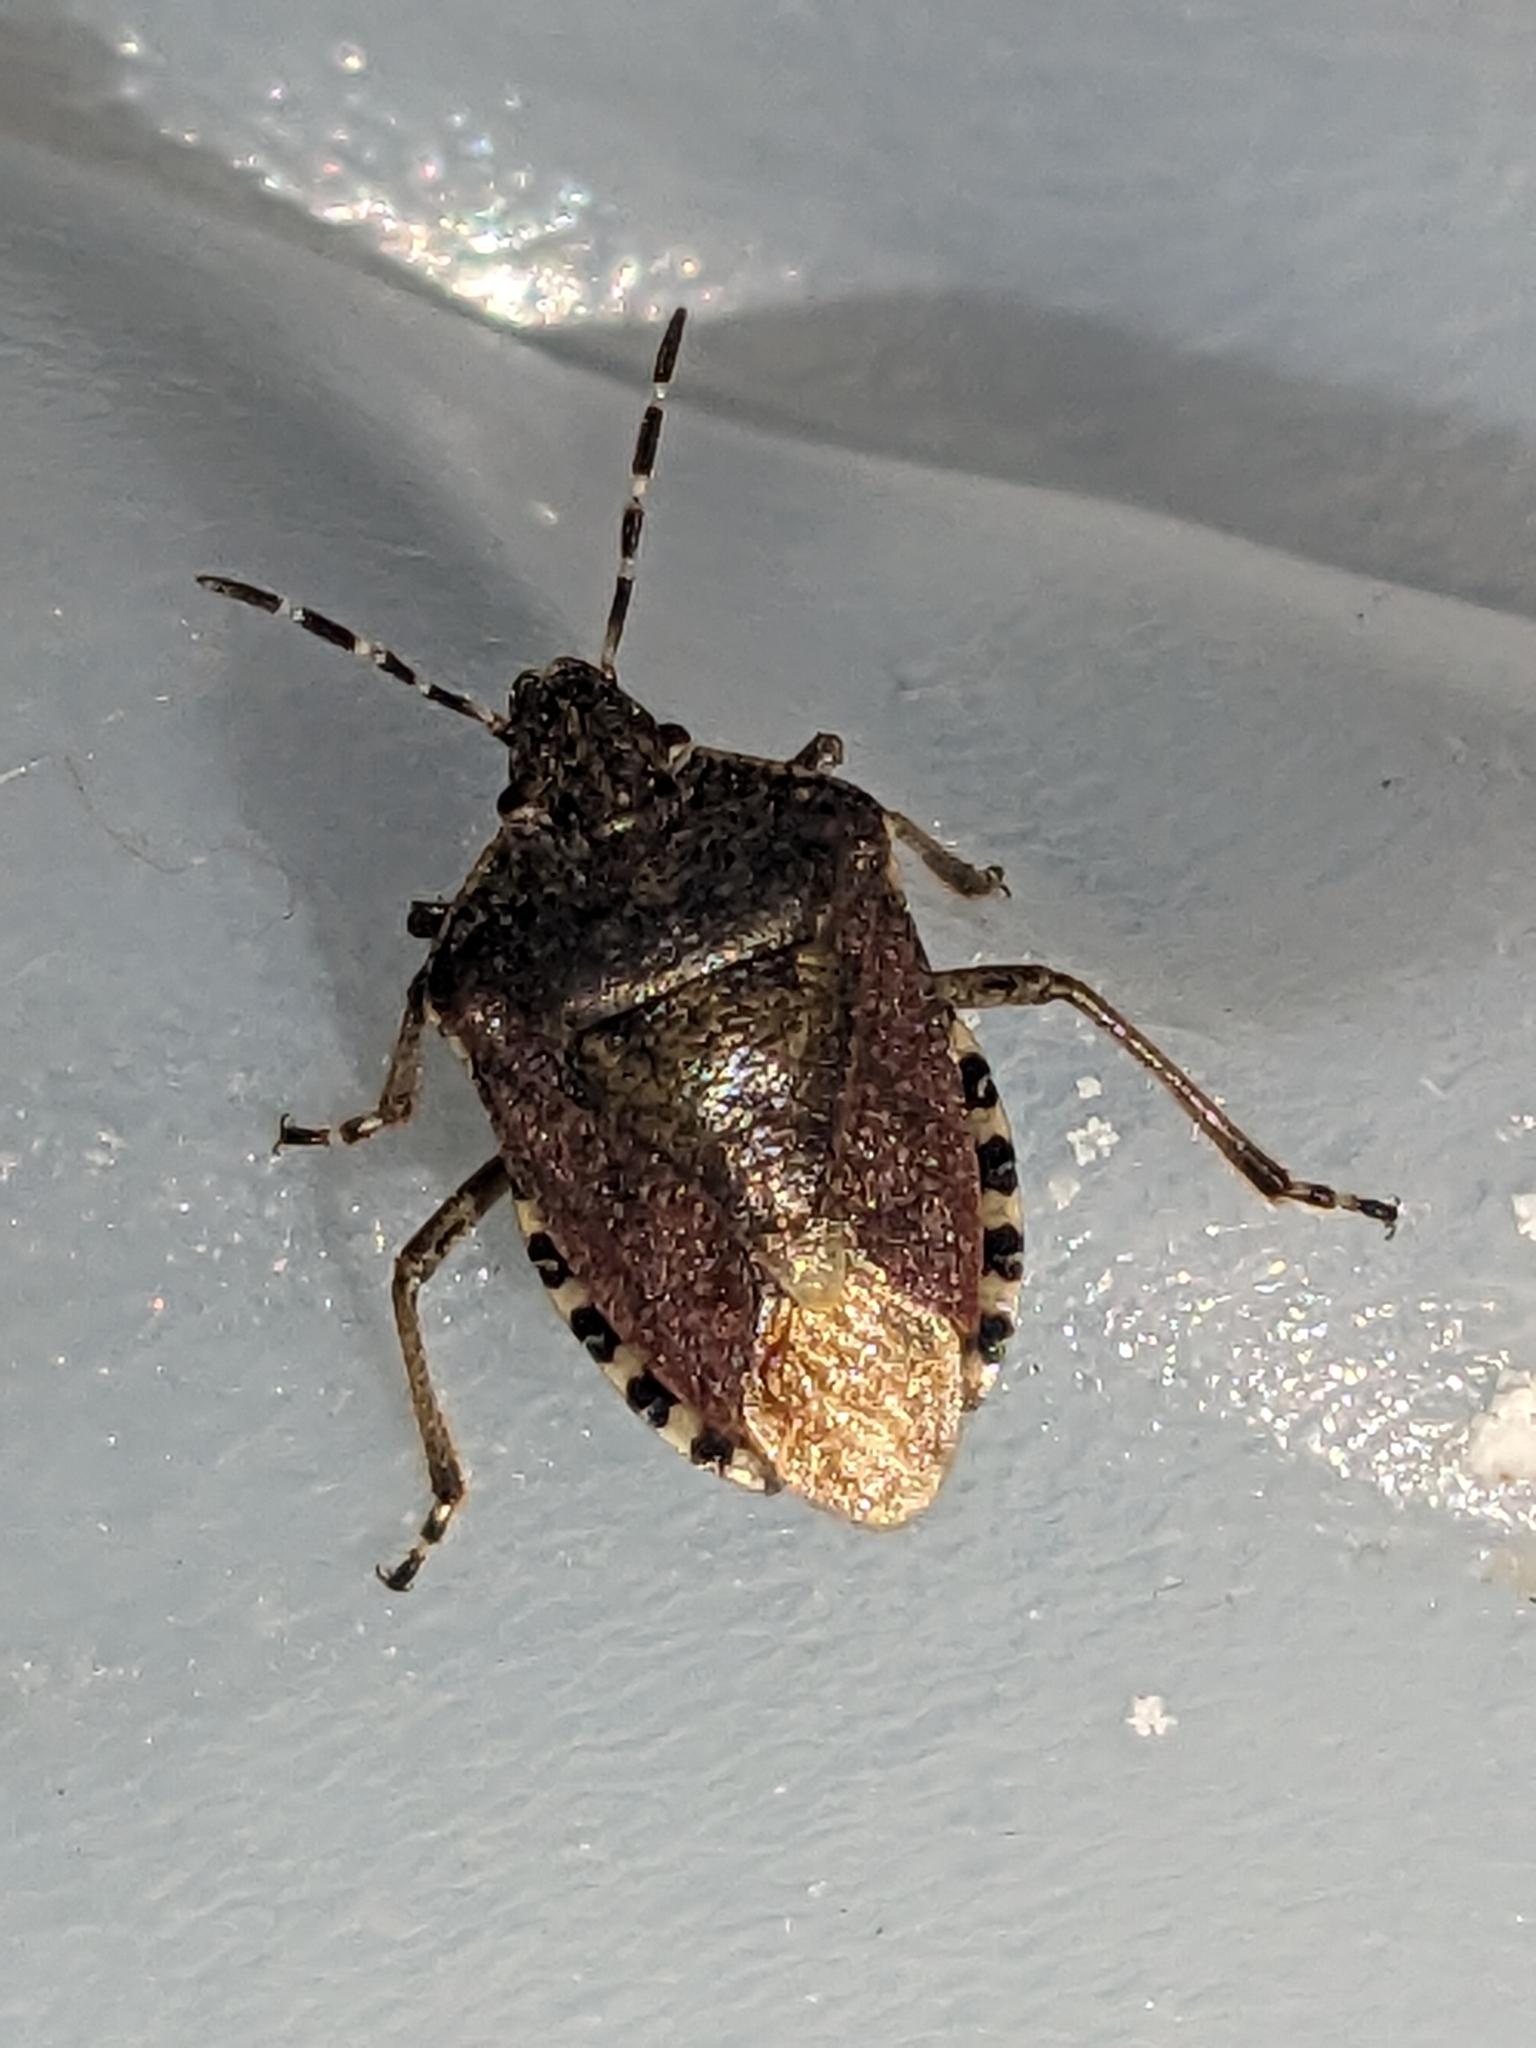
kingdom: Animalia
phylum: Arthropoda
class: Insecta
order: Hemiptera
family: Pentatomidae
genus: Dolycoris
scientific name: Dolycoris baccarum
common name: Sloe bug
